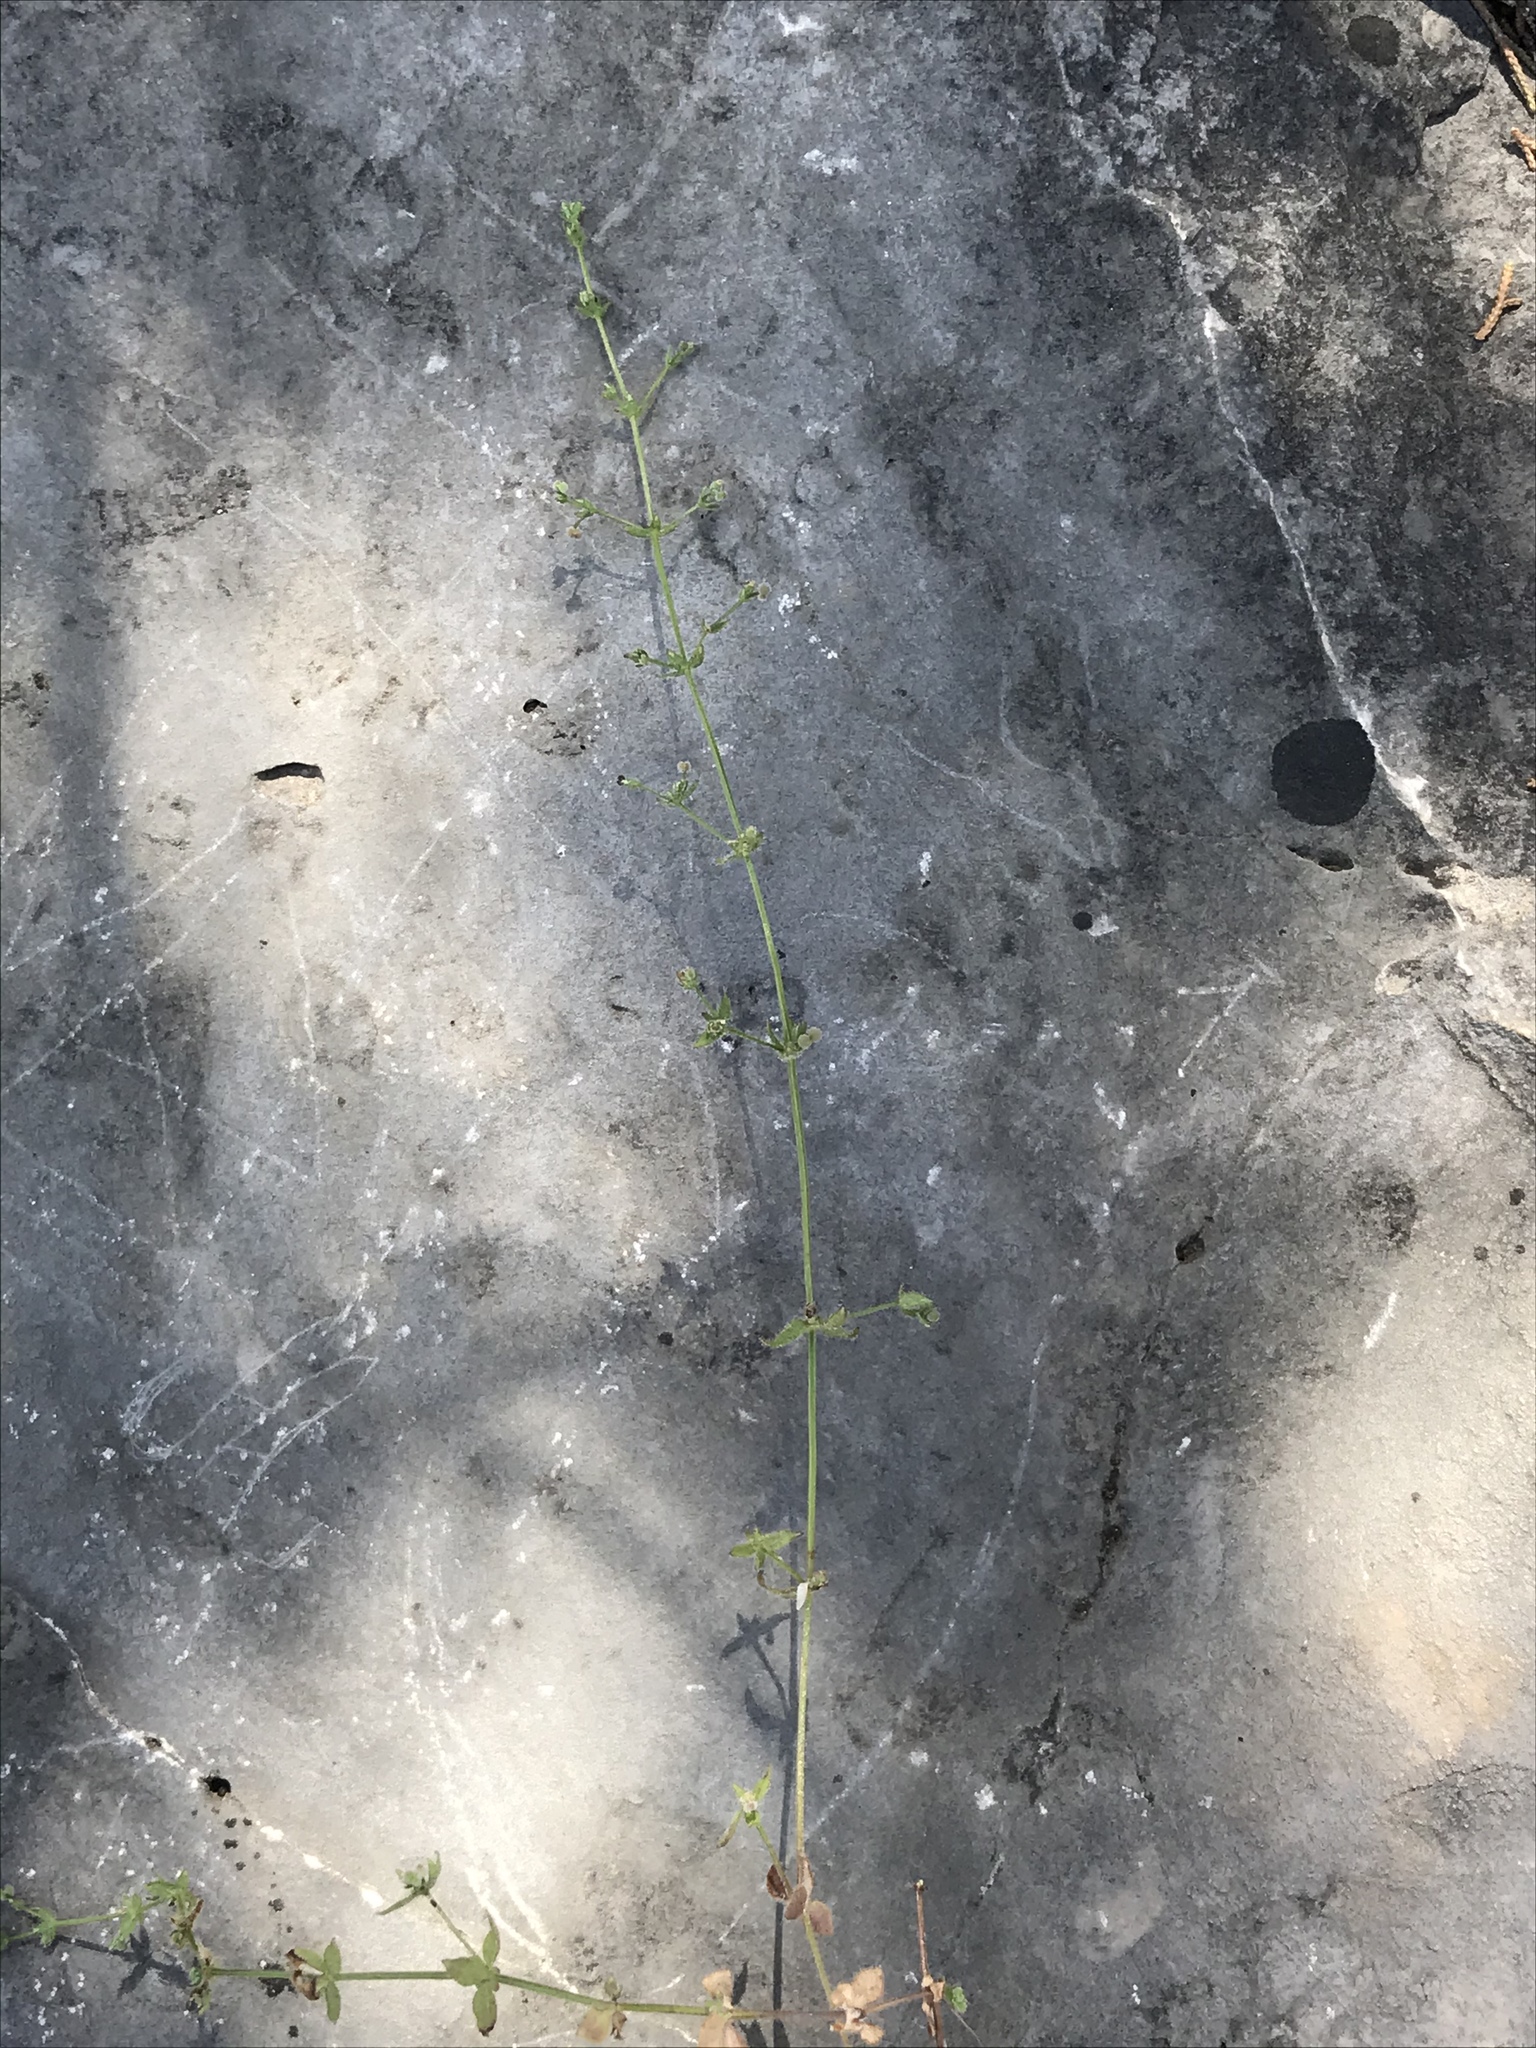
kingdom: Plantae
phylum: Tracheophyta
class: Magnoliopsida
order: Gentianales
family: Rubiaceae
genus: Galium
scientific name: Galium virgatum
